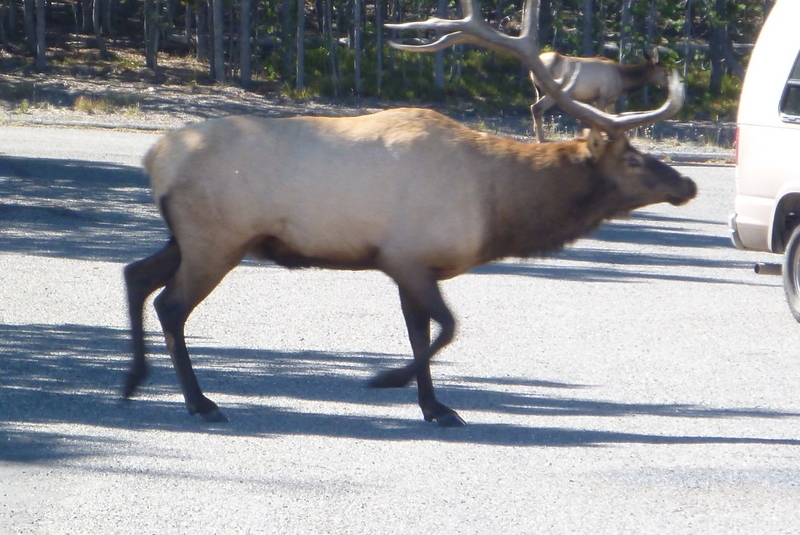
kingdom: Animalia
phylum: Chordata
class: Mammalia
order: Artiodactyla
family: Cervidae
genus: Cervus
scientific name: Cervus elaphus
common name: Red deer
